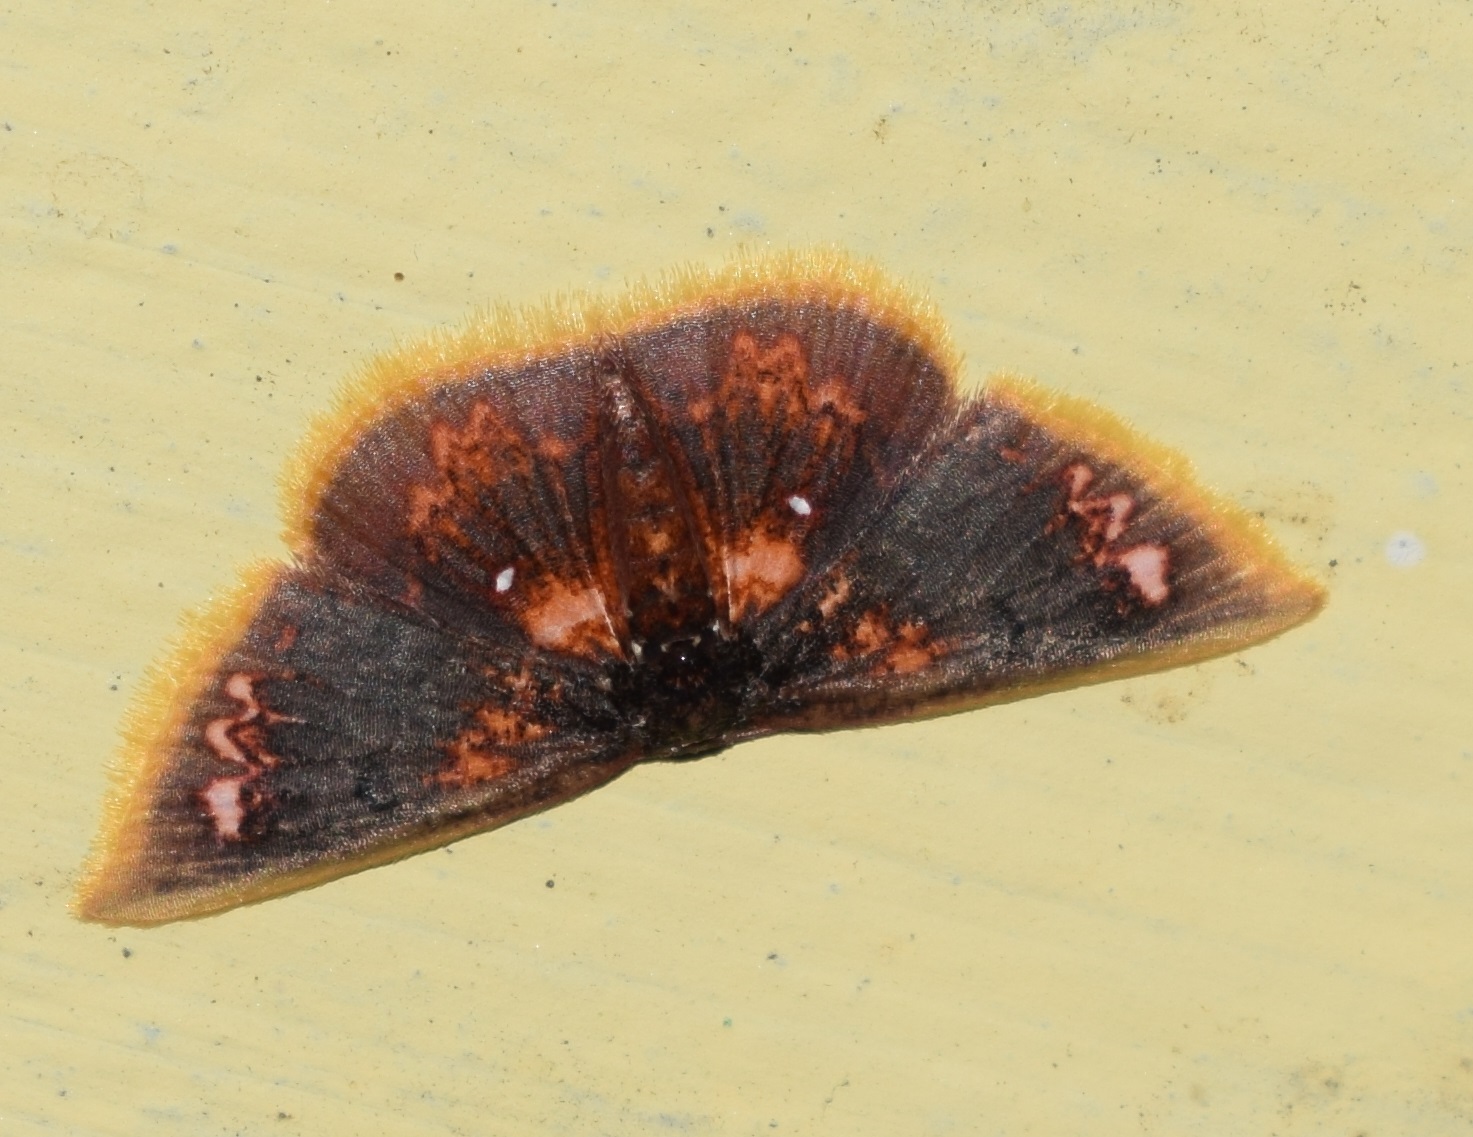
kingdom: Animalia
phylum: Arthropoda
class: Insecta
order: Lepidoptera
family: Geometridae
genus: Chrysocraspeda
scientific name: Chrysocraspeda abhadraca
